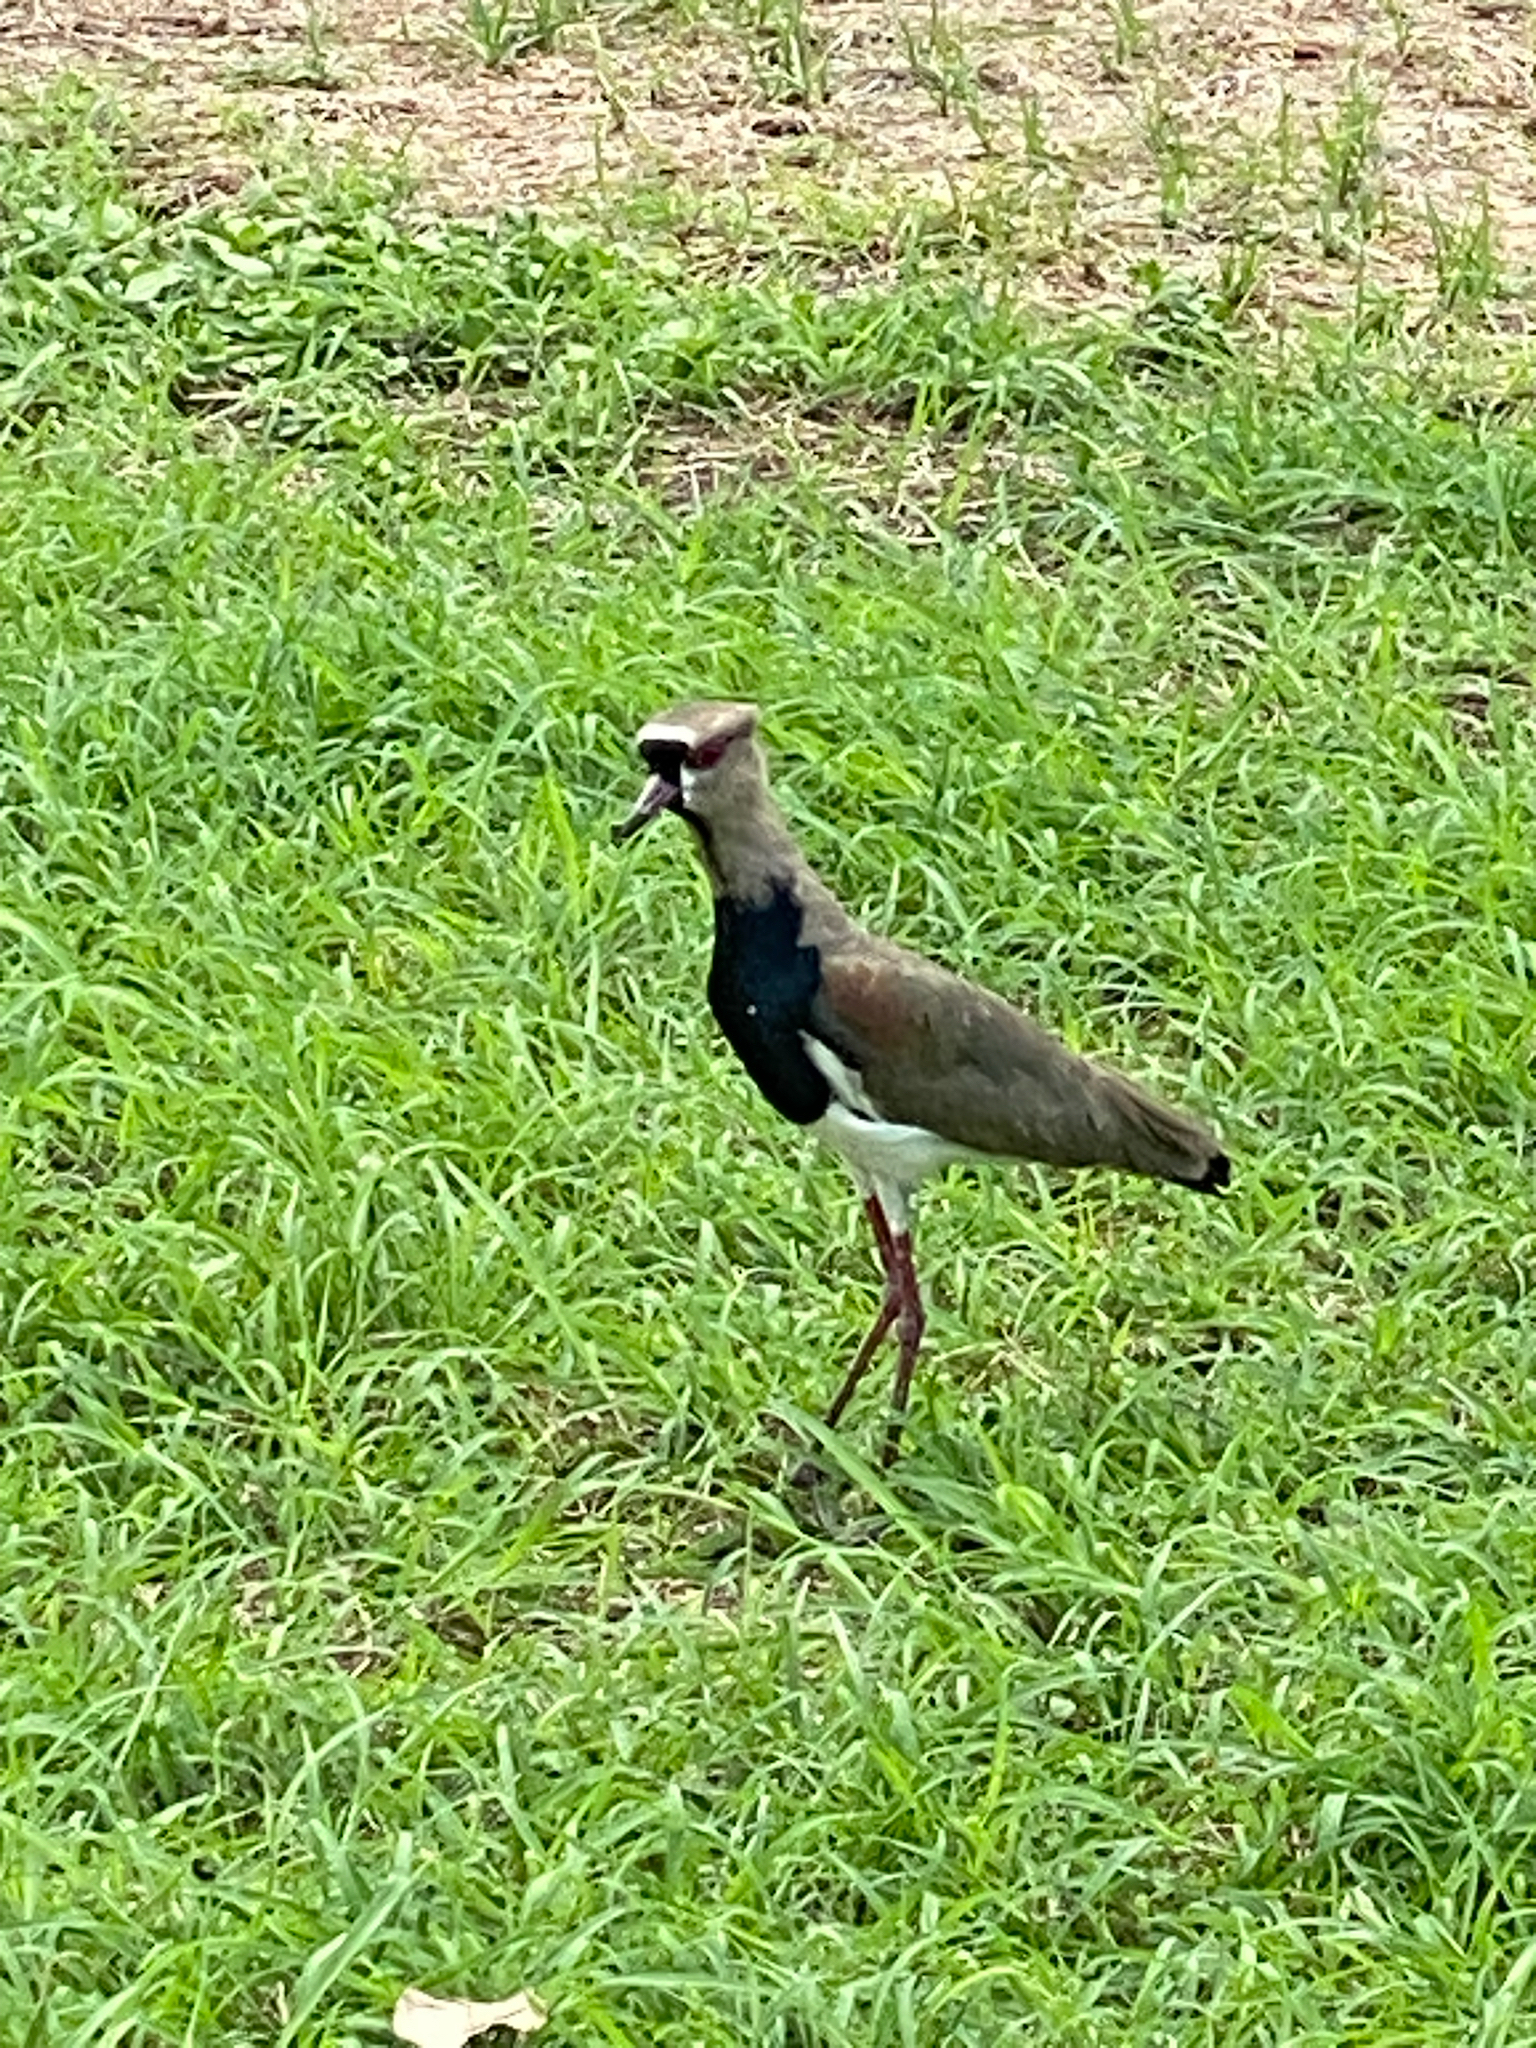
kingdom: Animalia
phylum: Chordata
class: Aves
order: Charadriiformes
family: Charadriidae
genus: Vanellus
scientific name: Vanellus chilensis
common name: Southern lapwing
